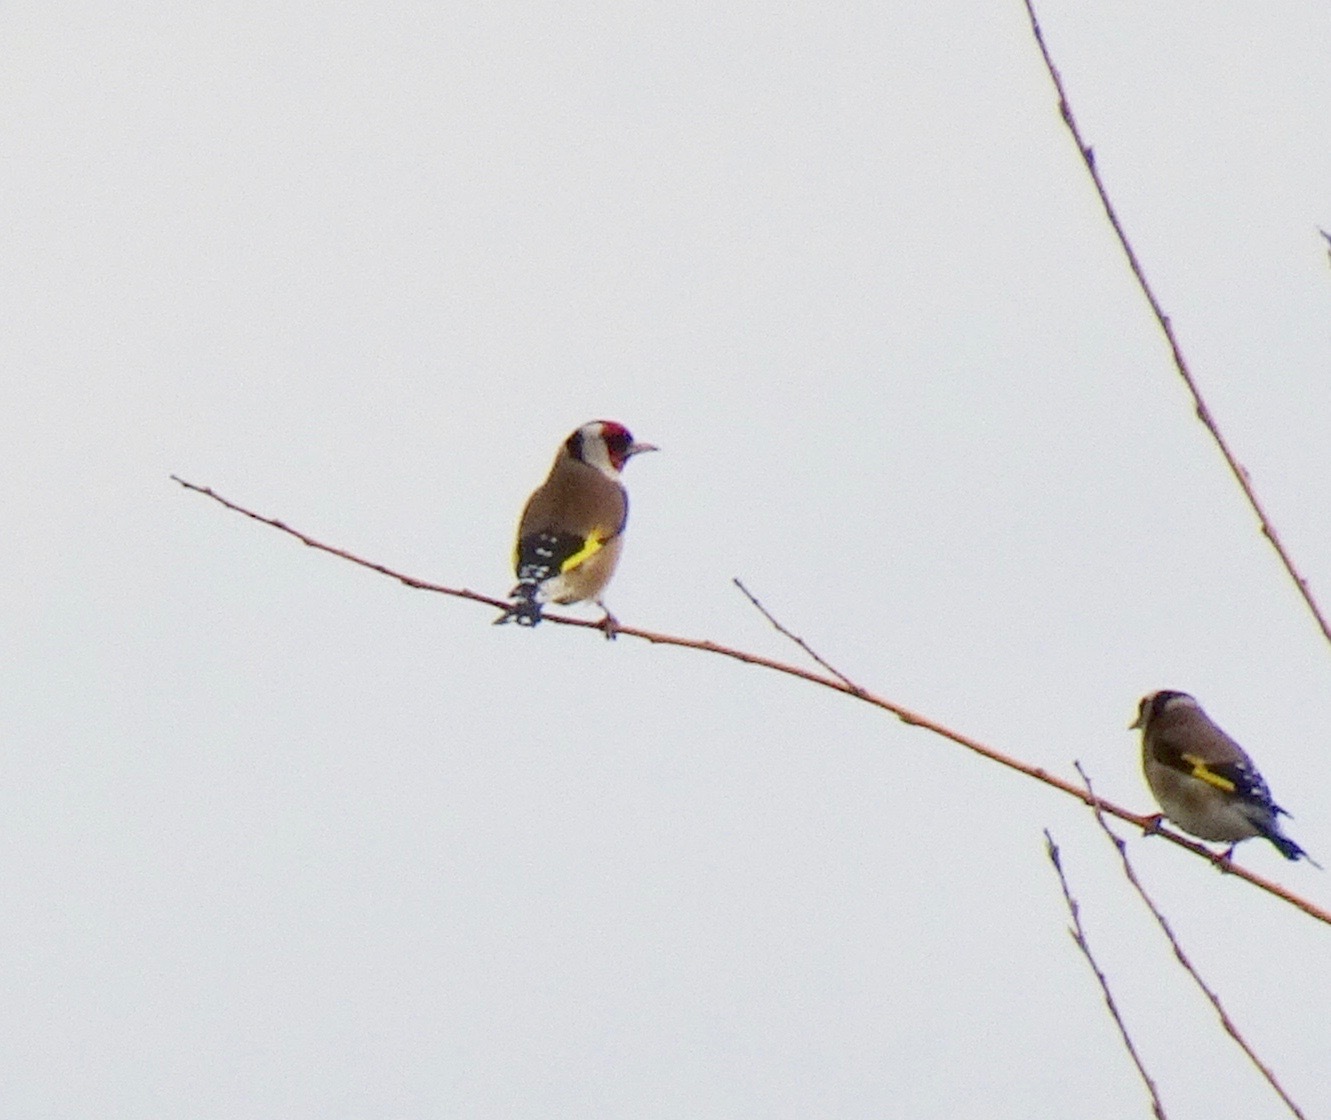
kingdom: Animalia
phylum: Chordata
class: Aves
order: Passeriformes
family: Fringillidae
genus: Carduelis
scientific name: Carduelis carduelis
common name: European goldfinch
